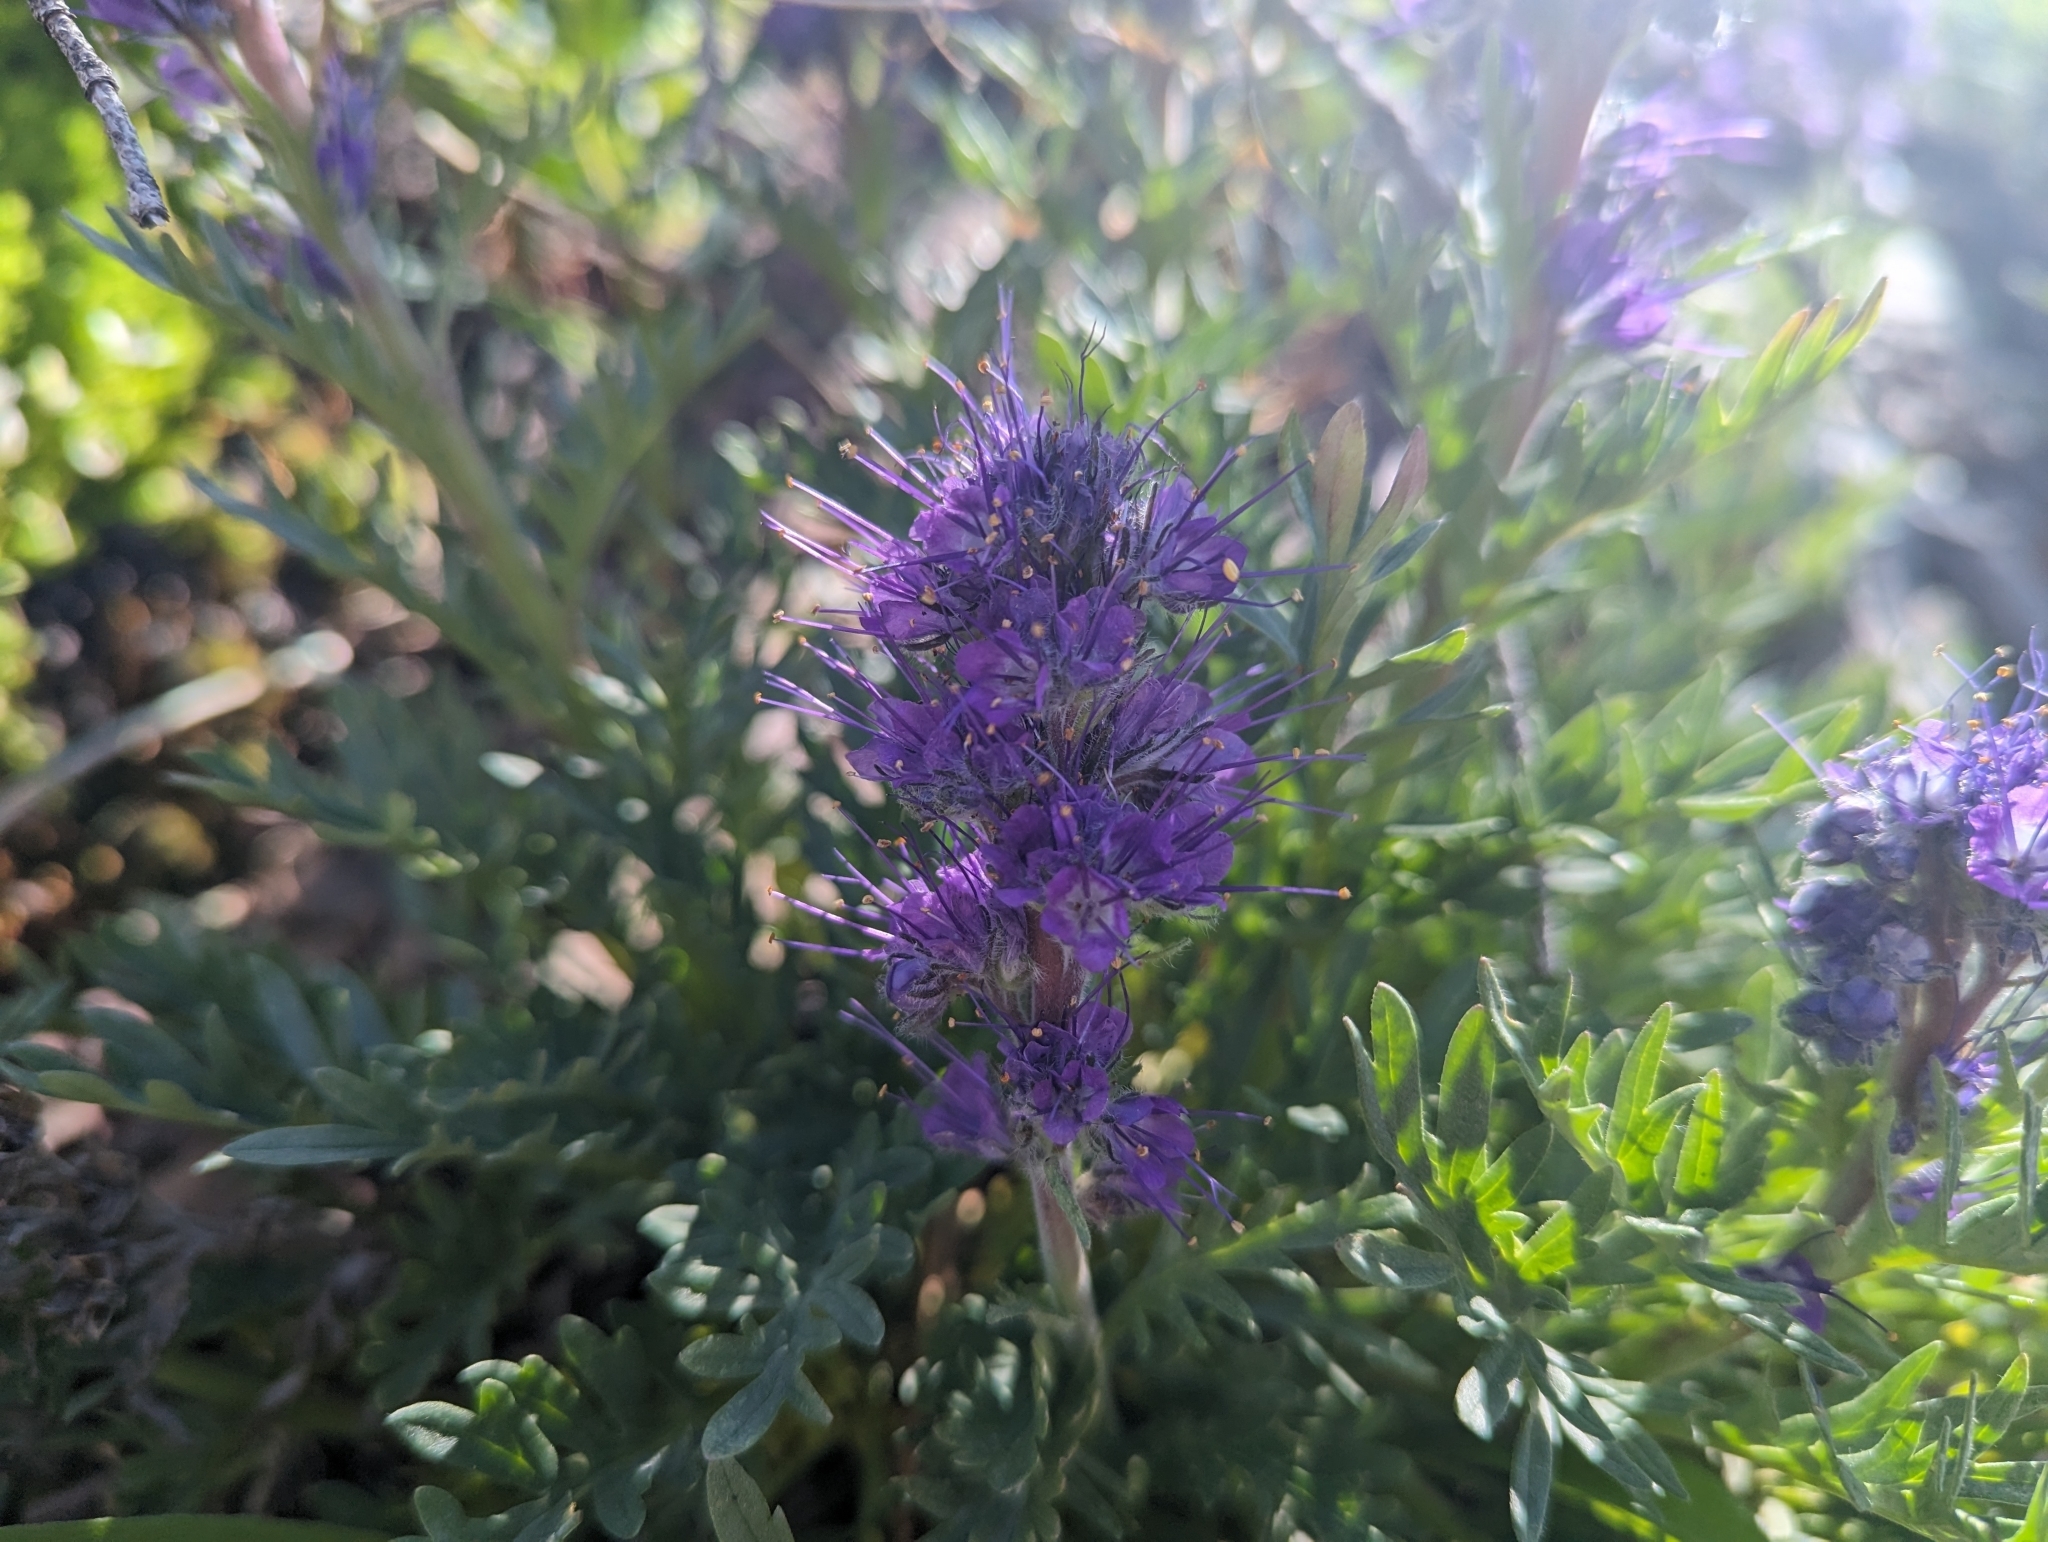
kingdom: Plantae
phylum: Tracheophyta
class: Magnoliopsida
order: Boraginales
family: Hydrophyllaceae
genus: Phacelia
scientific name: Phacelia sericea
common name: Silky phacelia
